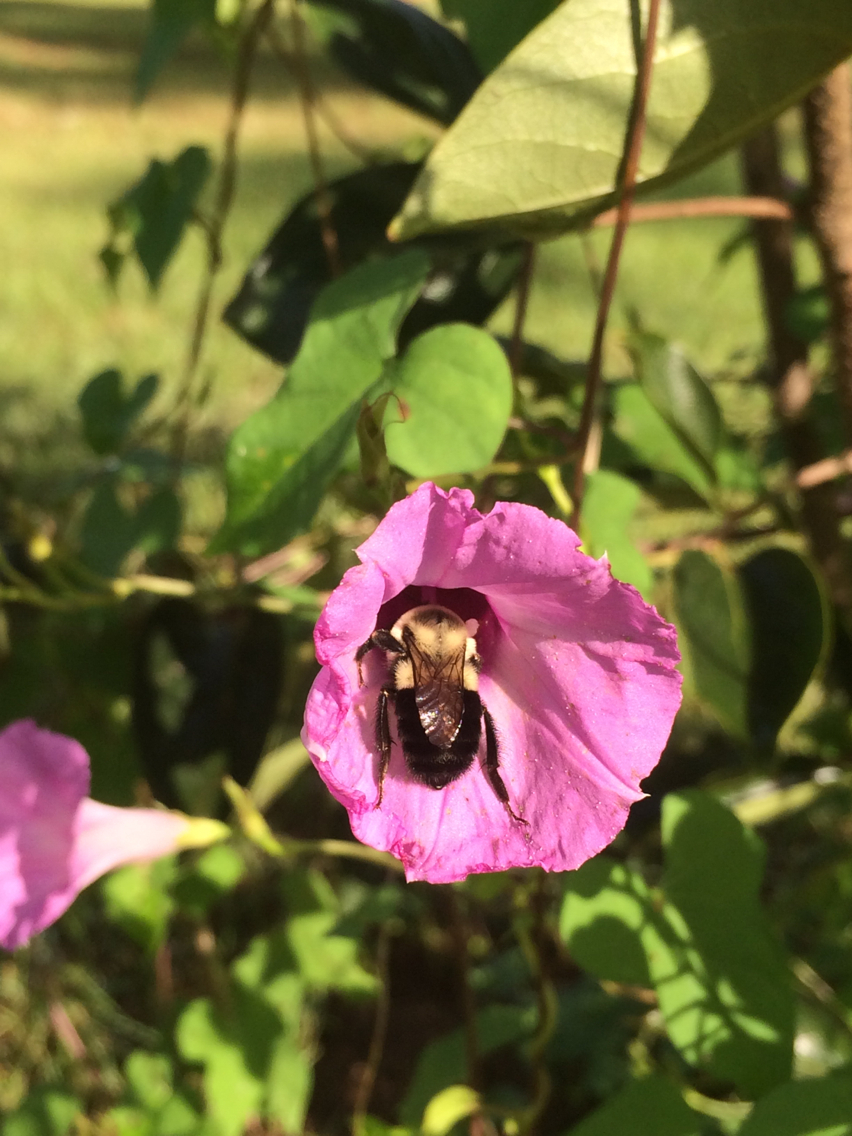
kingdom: Animalia
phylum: Arthropoda
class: Insecta
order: Hymenoptera
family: Apidae
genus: Bombus
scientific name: Bombus impatiens
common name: Common eastern bumble bee
